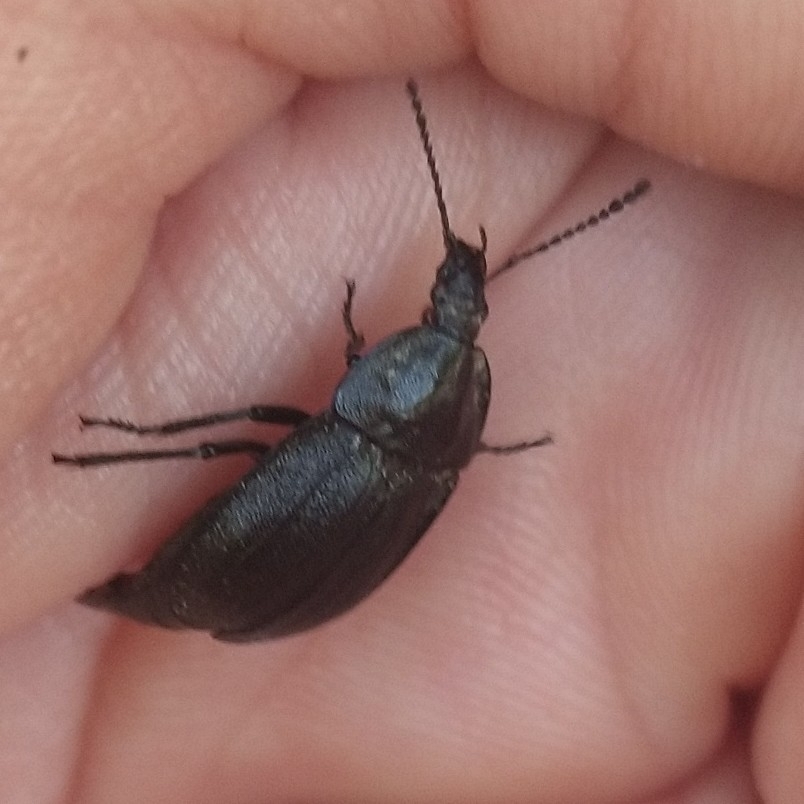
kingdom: Animalia
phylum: Arthropoda
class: Insecta
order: Coleoptera
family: Staphylinidae
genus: Silpha
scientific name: Silpha atrata
